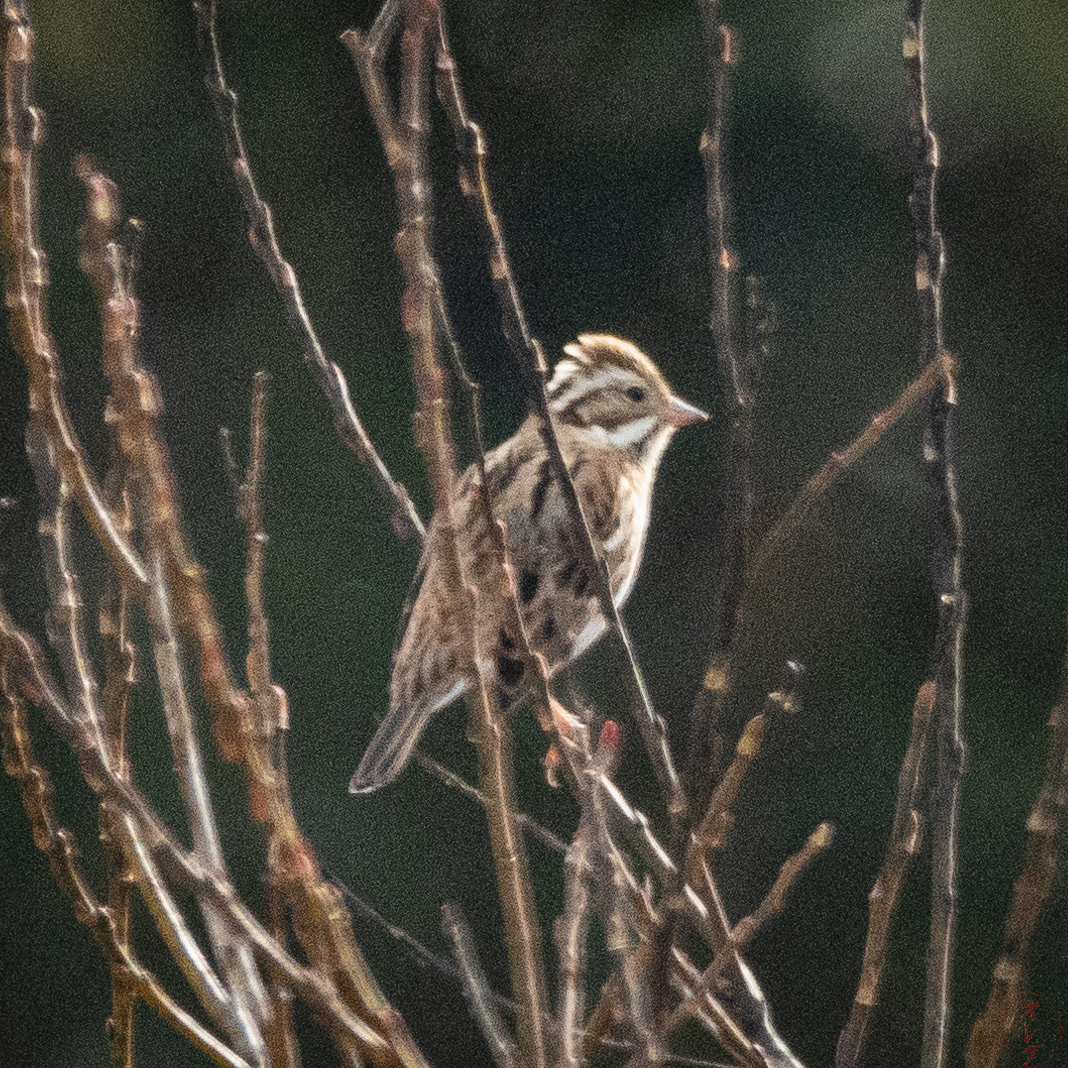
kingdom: Animalia
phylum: Chordata
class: Aves
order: Passeriformes
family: Emberizidae
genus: Emberiza
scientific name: Emberiza rustica
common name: Rustic bunting
